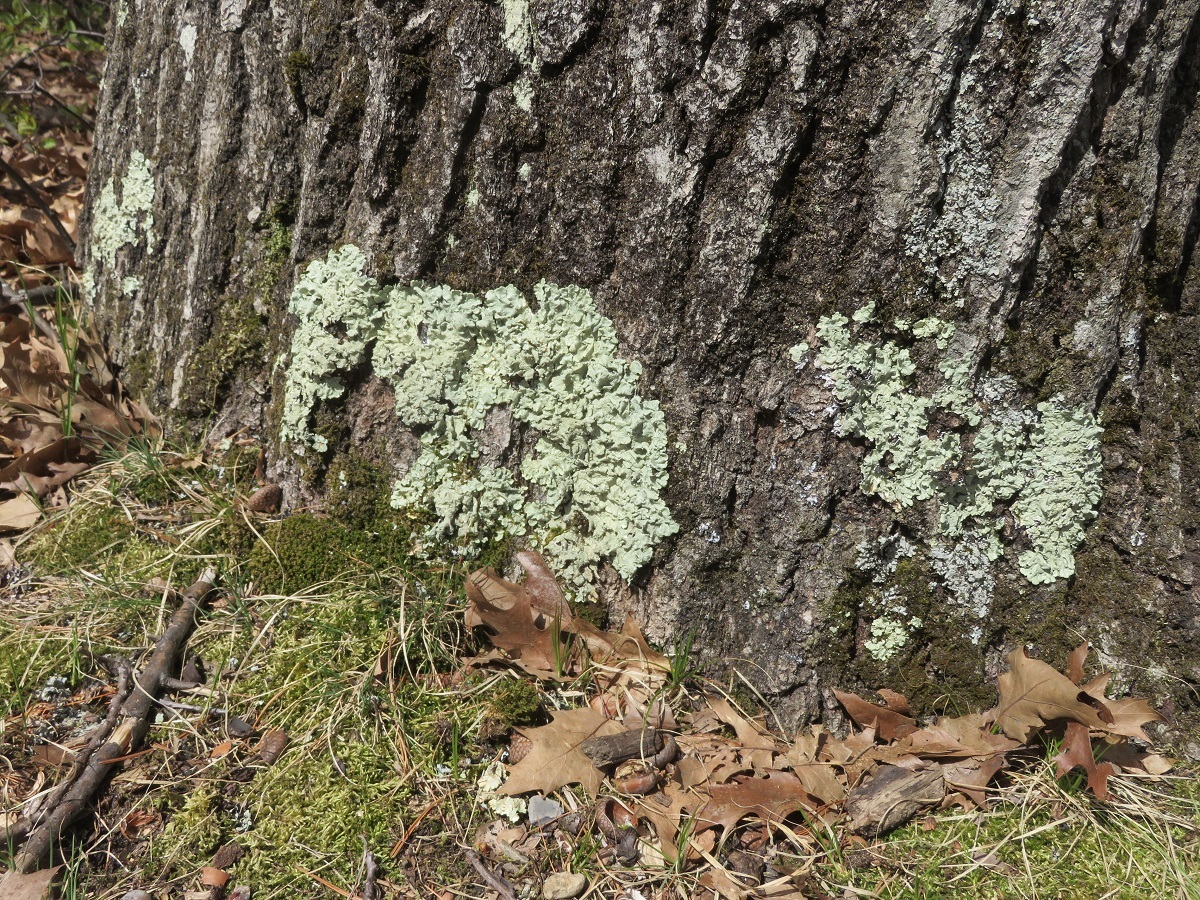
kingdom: Fungi
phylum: Ascomycota
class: Lecanoromycetes
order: Lecanorales
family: Parmeliaceae
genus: Flavoparmelia
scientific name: Flavoparmelia caperata
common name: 40-mile per hour lichen
